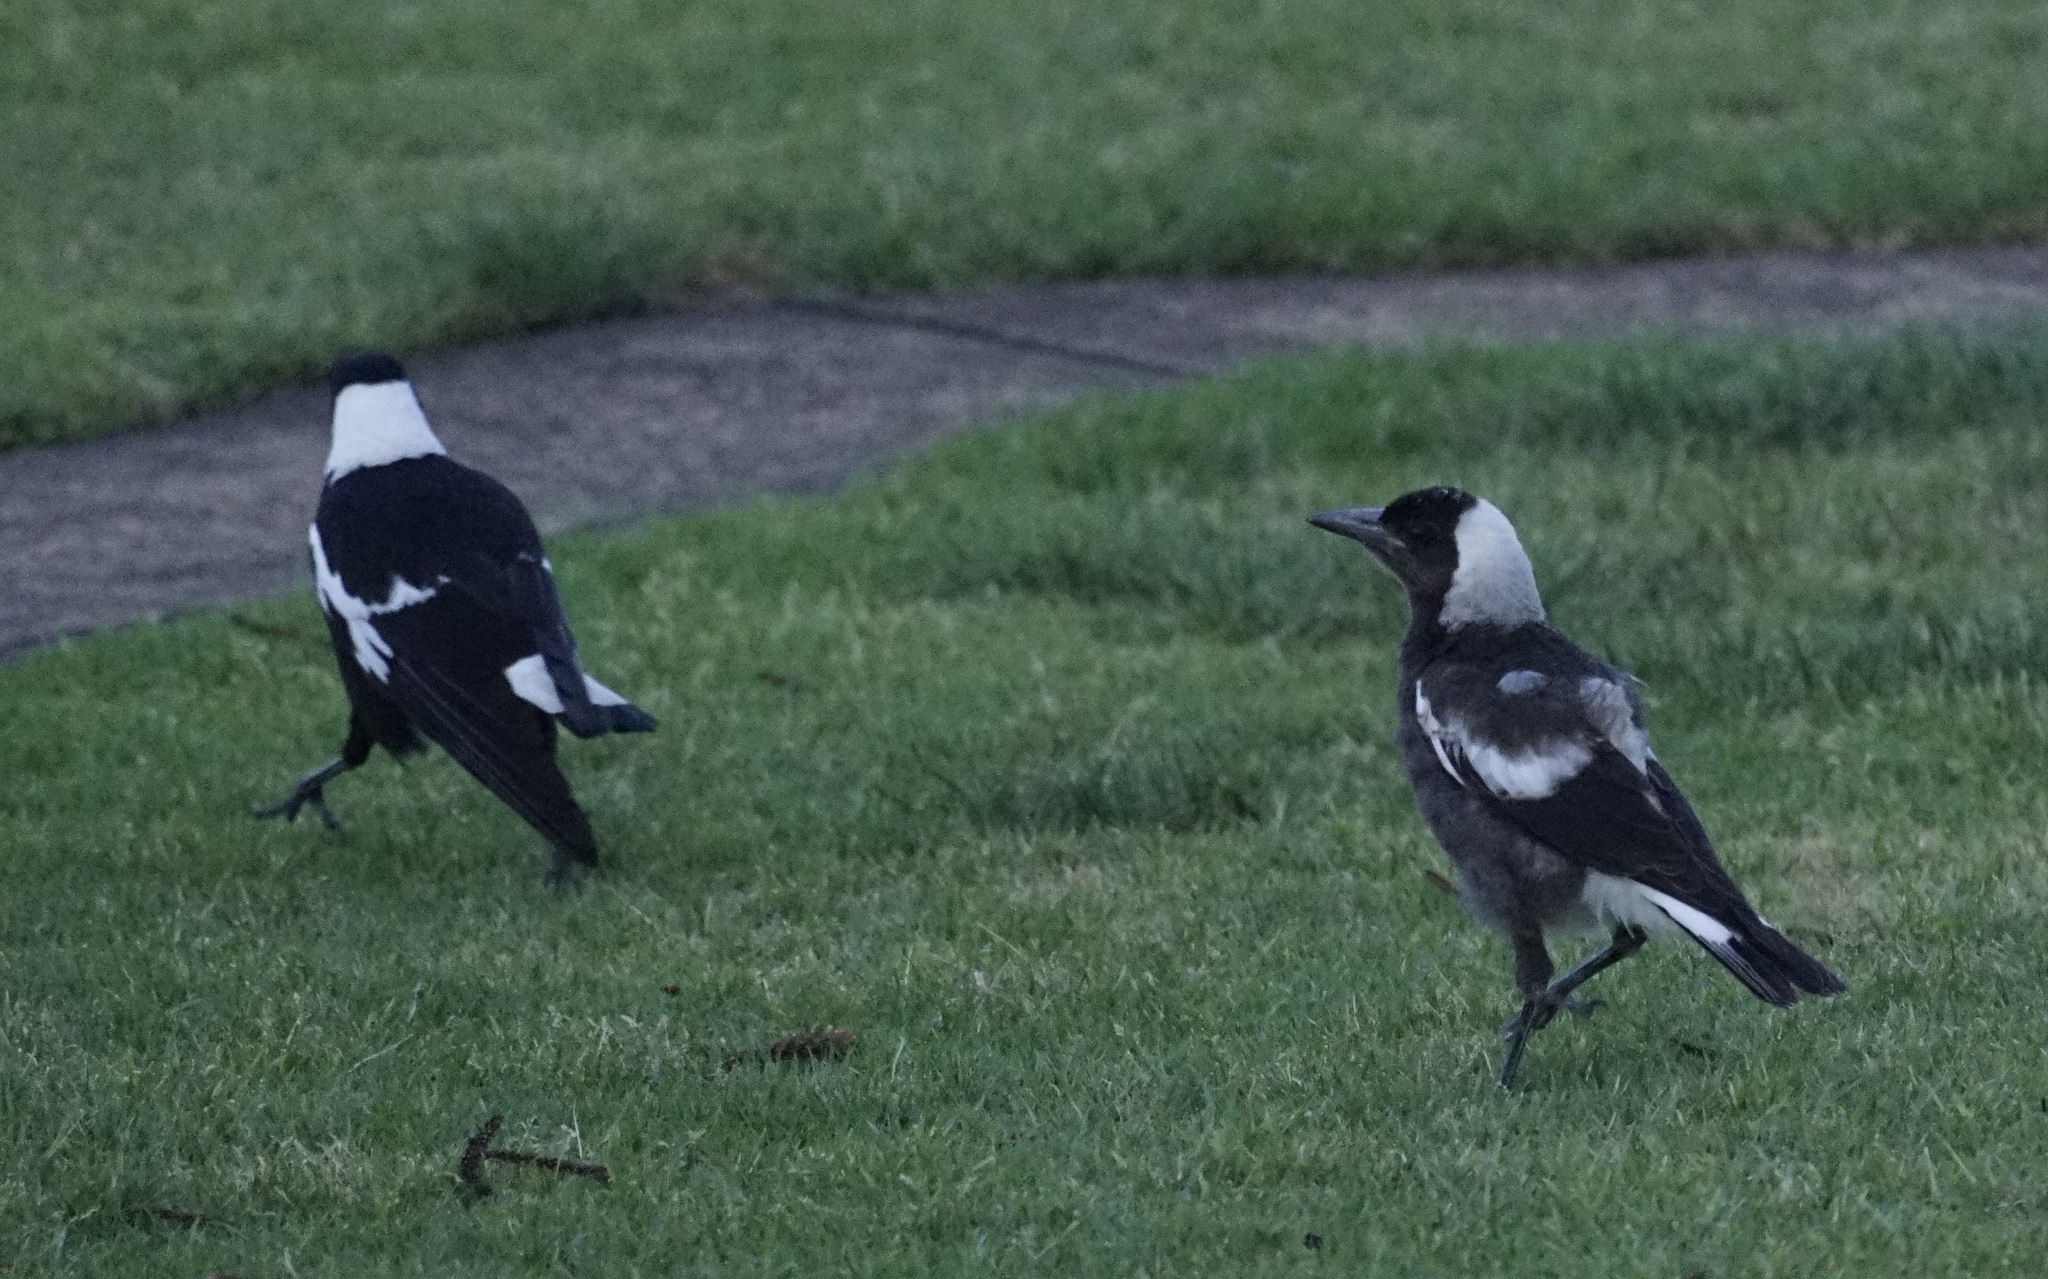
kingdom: Animalia
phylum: Chordata
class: Aves
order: Passeriformes
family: Cracticidae
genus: Gymnorhina
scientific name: Gymnorhina tibicen
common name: Australian magpie
